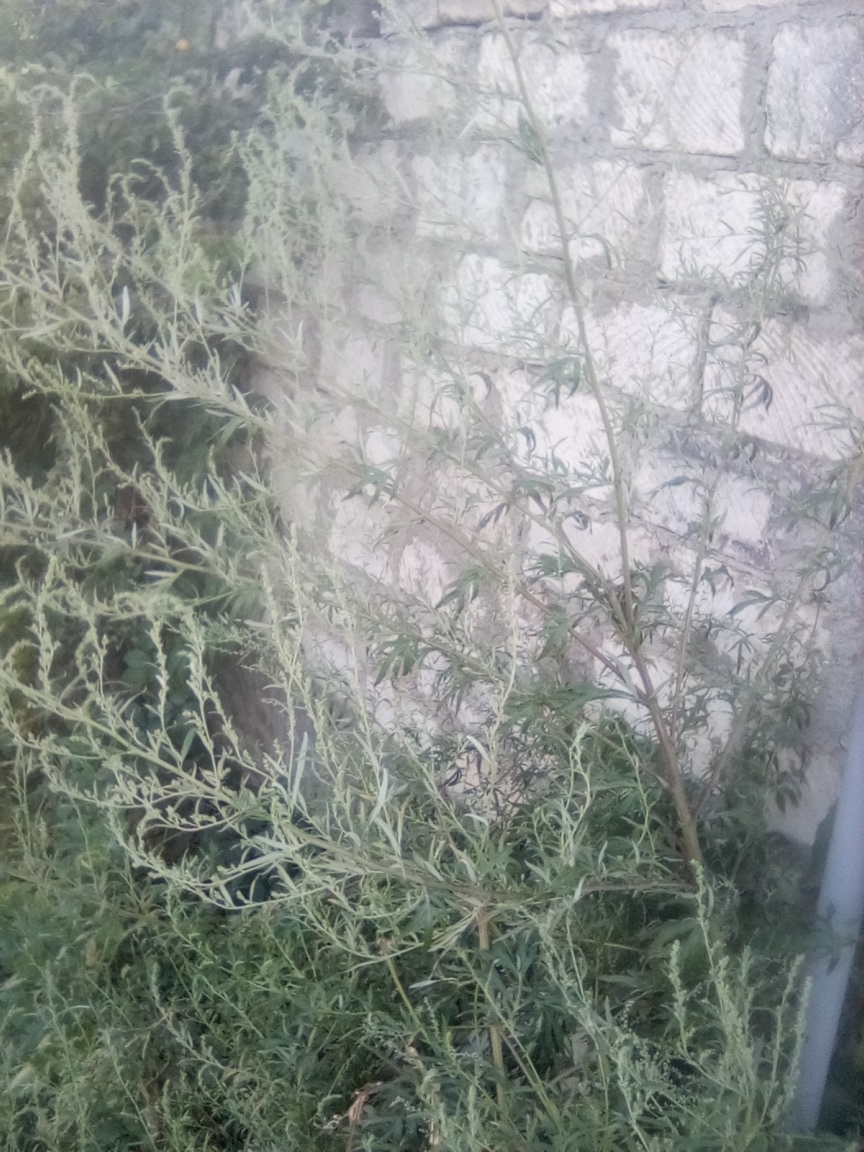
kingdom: Plantae
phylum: Tracheophyta
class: Magnoliopsida
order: Asterales
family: Asteraceae
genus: Artemisia
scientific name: Artemisia absinthium
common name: Wormwood
